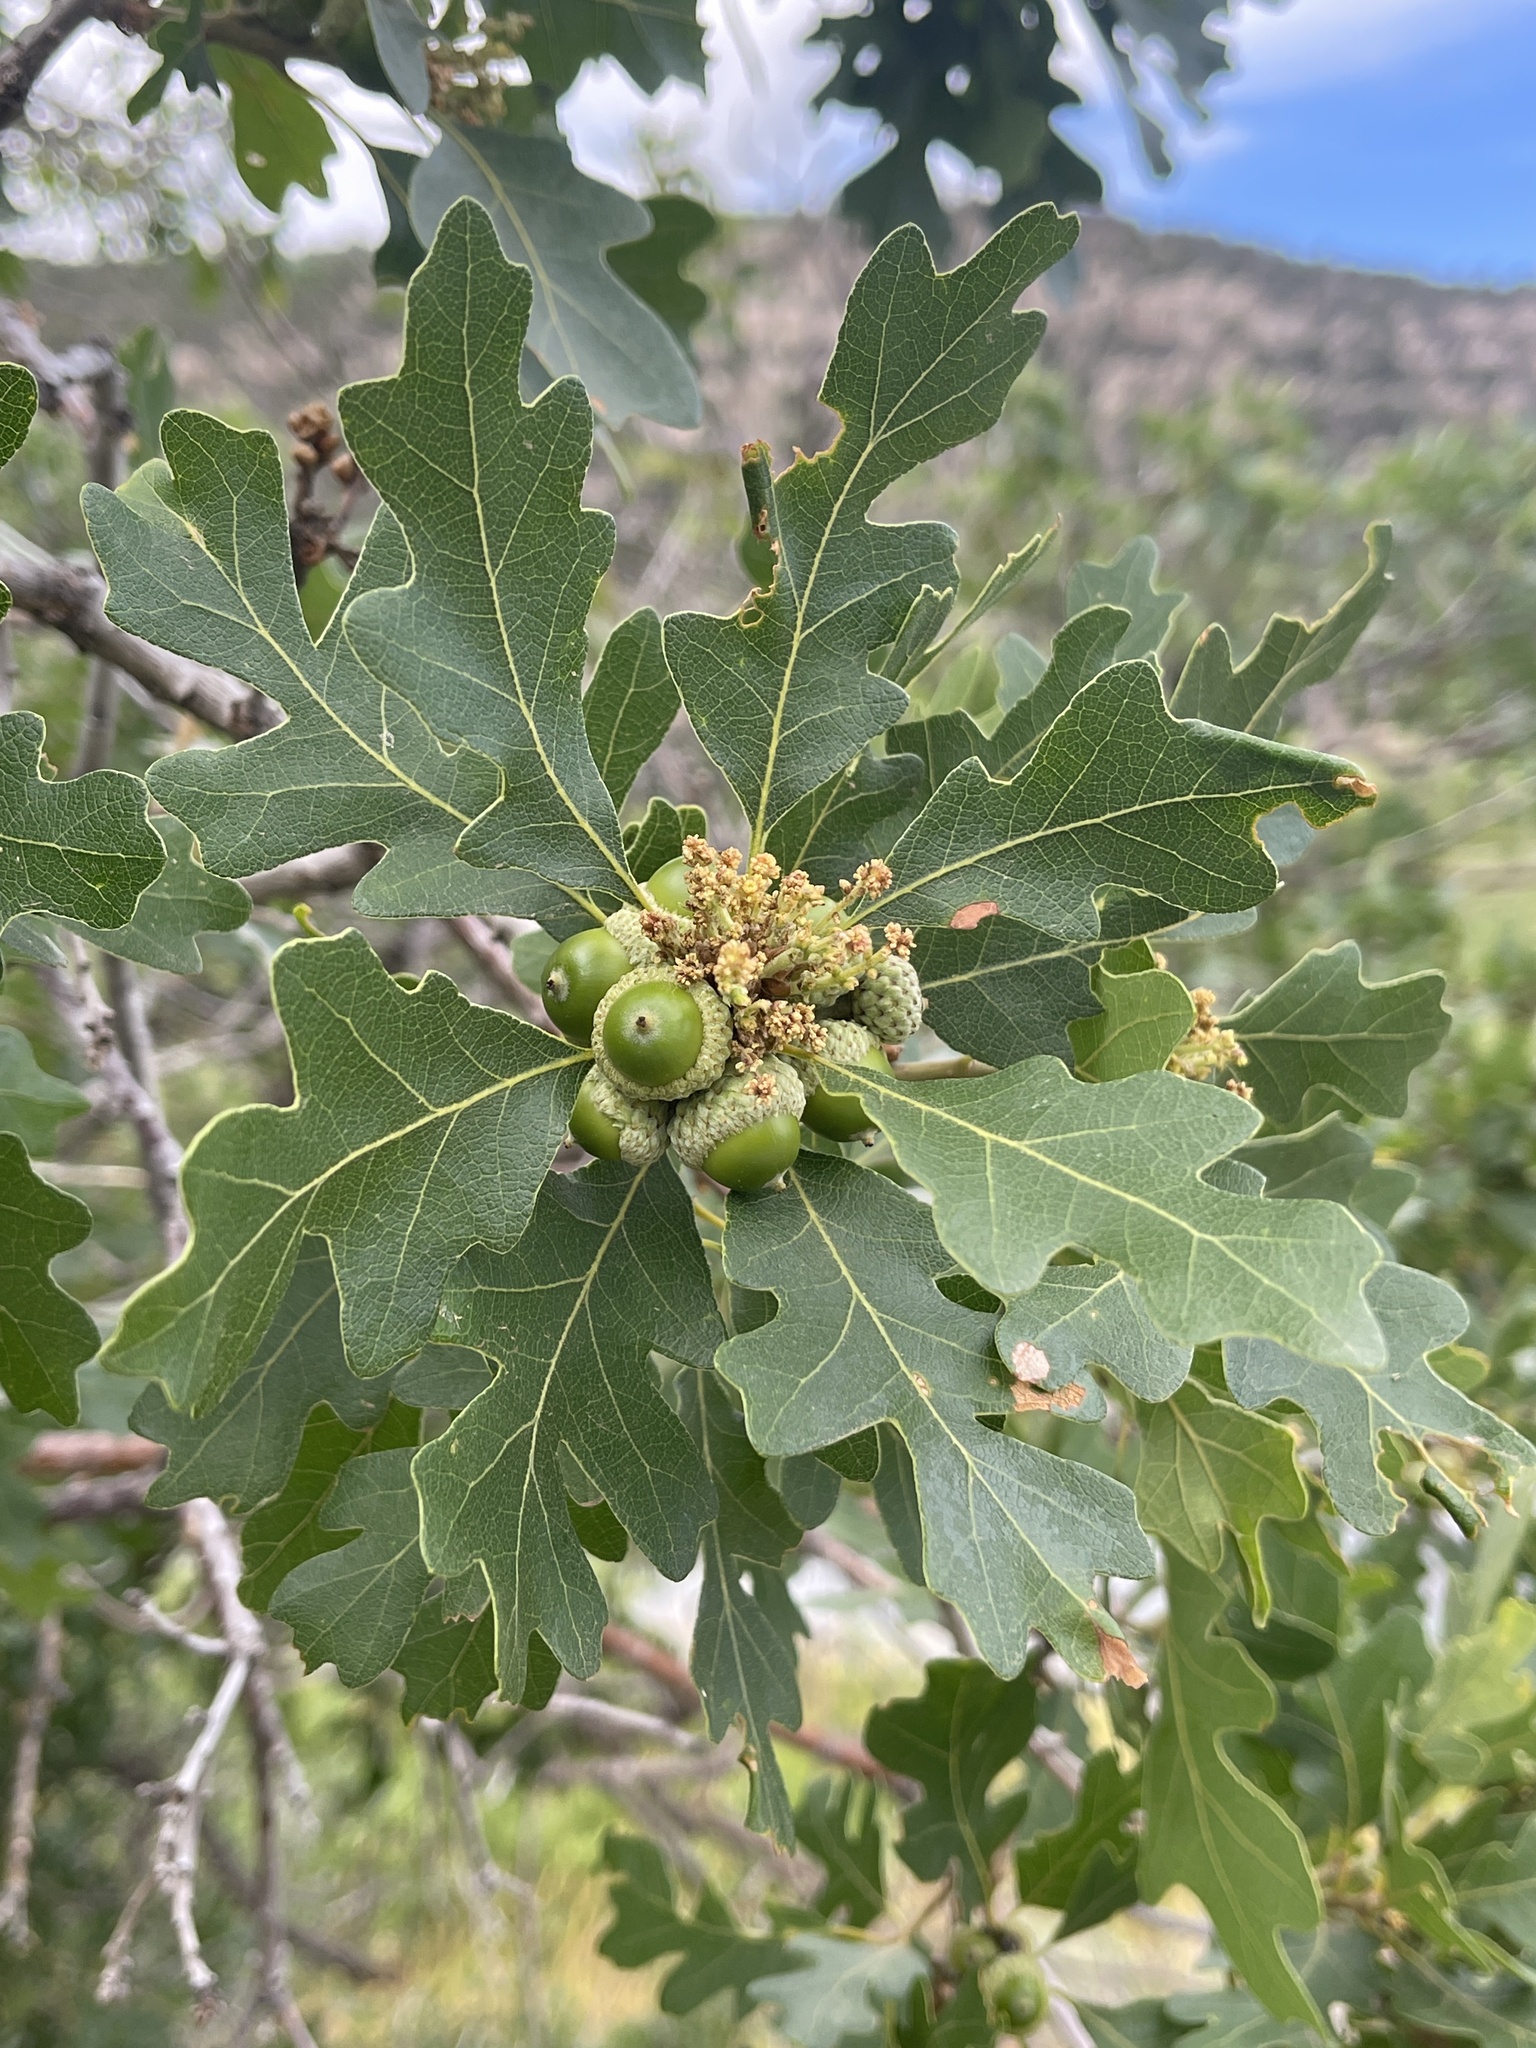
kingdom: Plantae
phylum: Tracheophyta
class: Magnoliopsida
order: Fagales
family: Fagaceae
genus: Quercus
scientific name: Quercus gambelii
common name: Gambel oak
